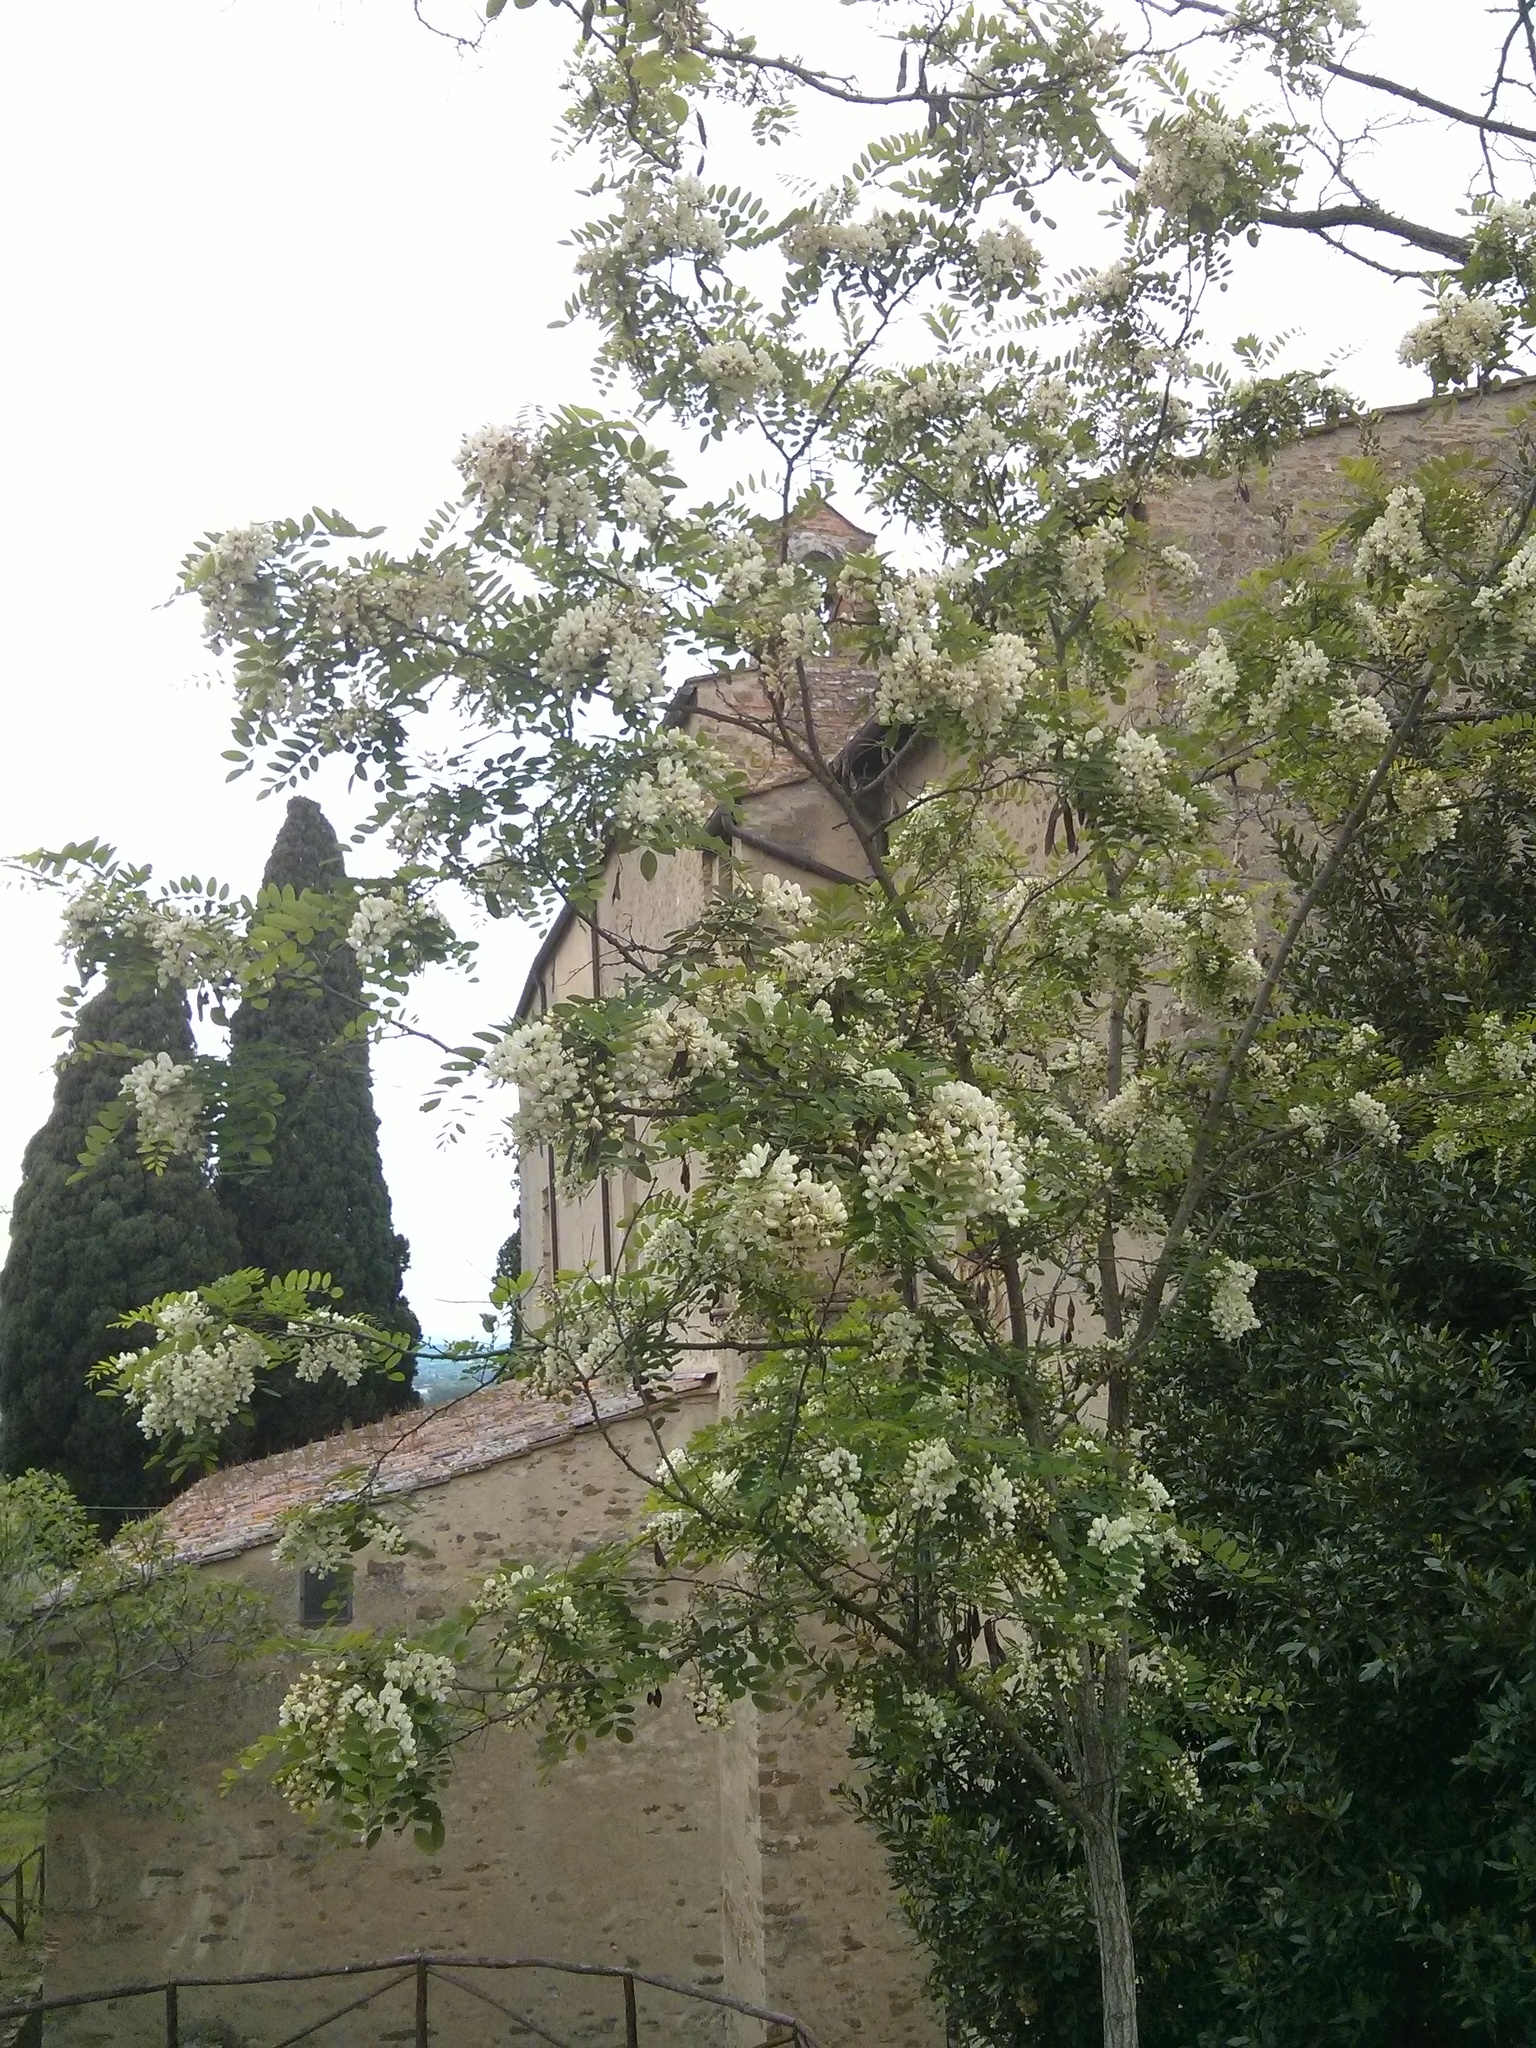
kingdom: Plantae
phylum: Tracheophyta
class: Magnoliopsida
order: Fabales
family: Fabaceae
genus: Robinia
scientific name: Robinia pseudoacacia
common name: Black locust
